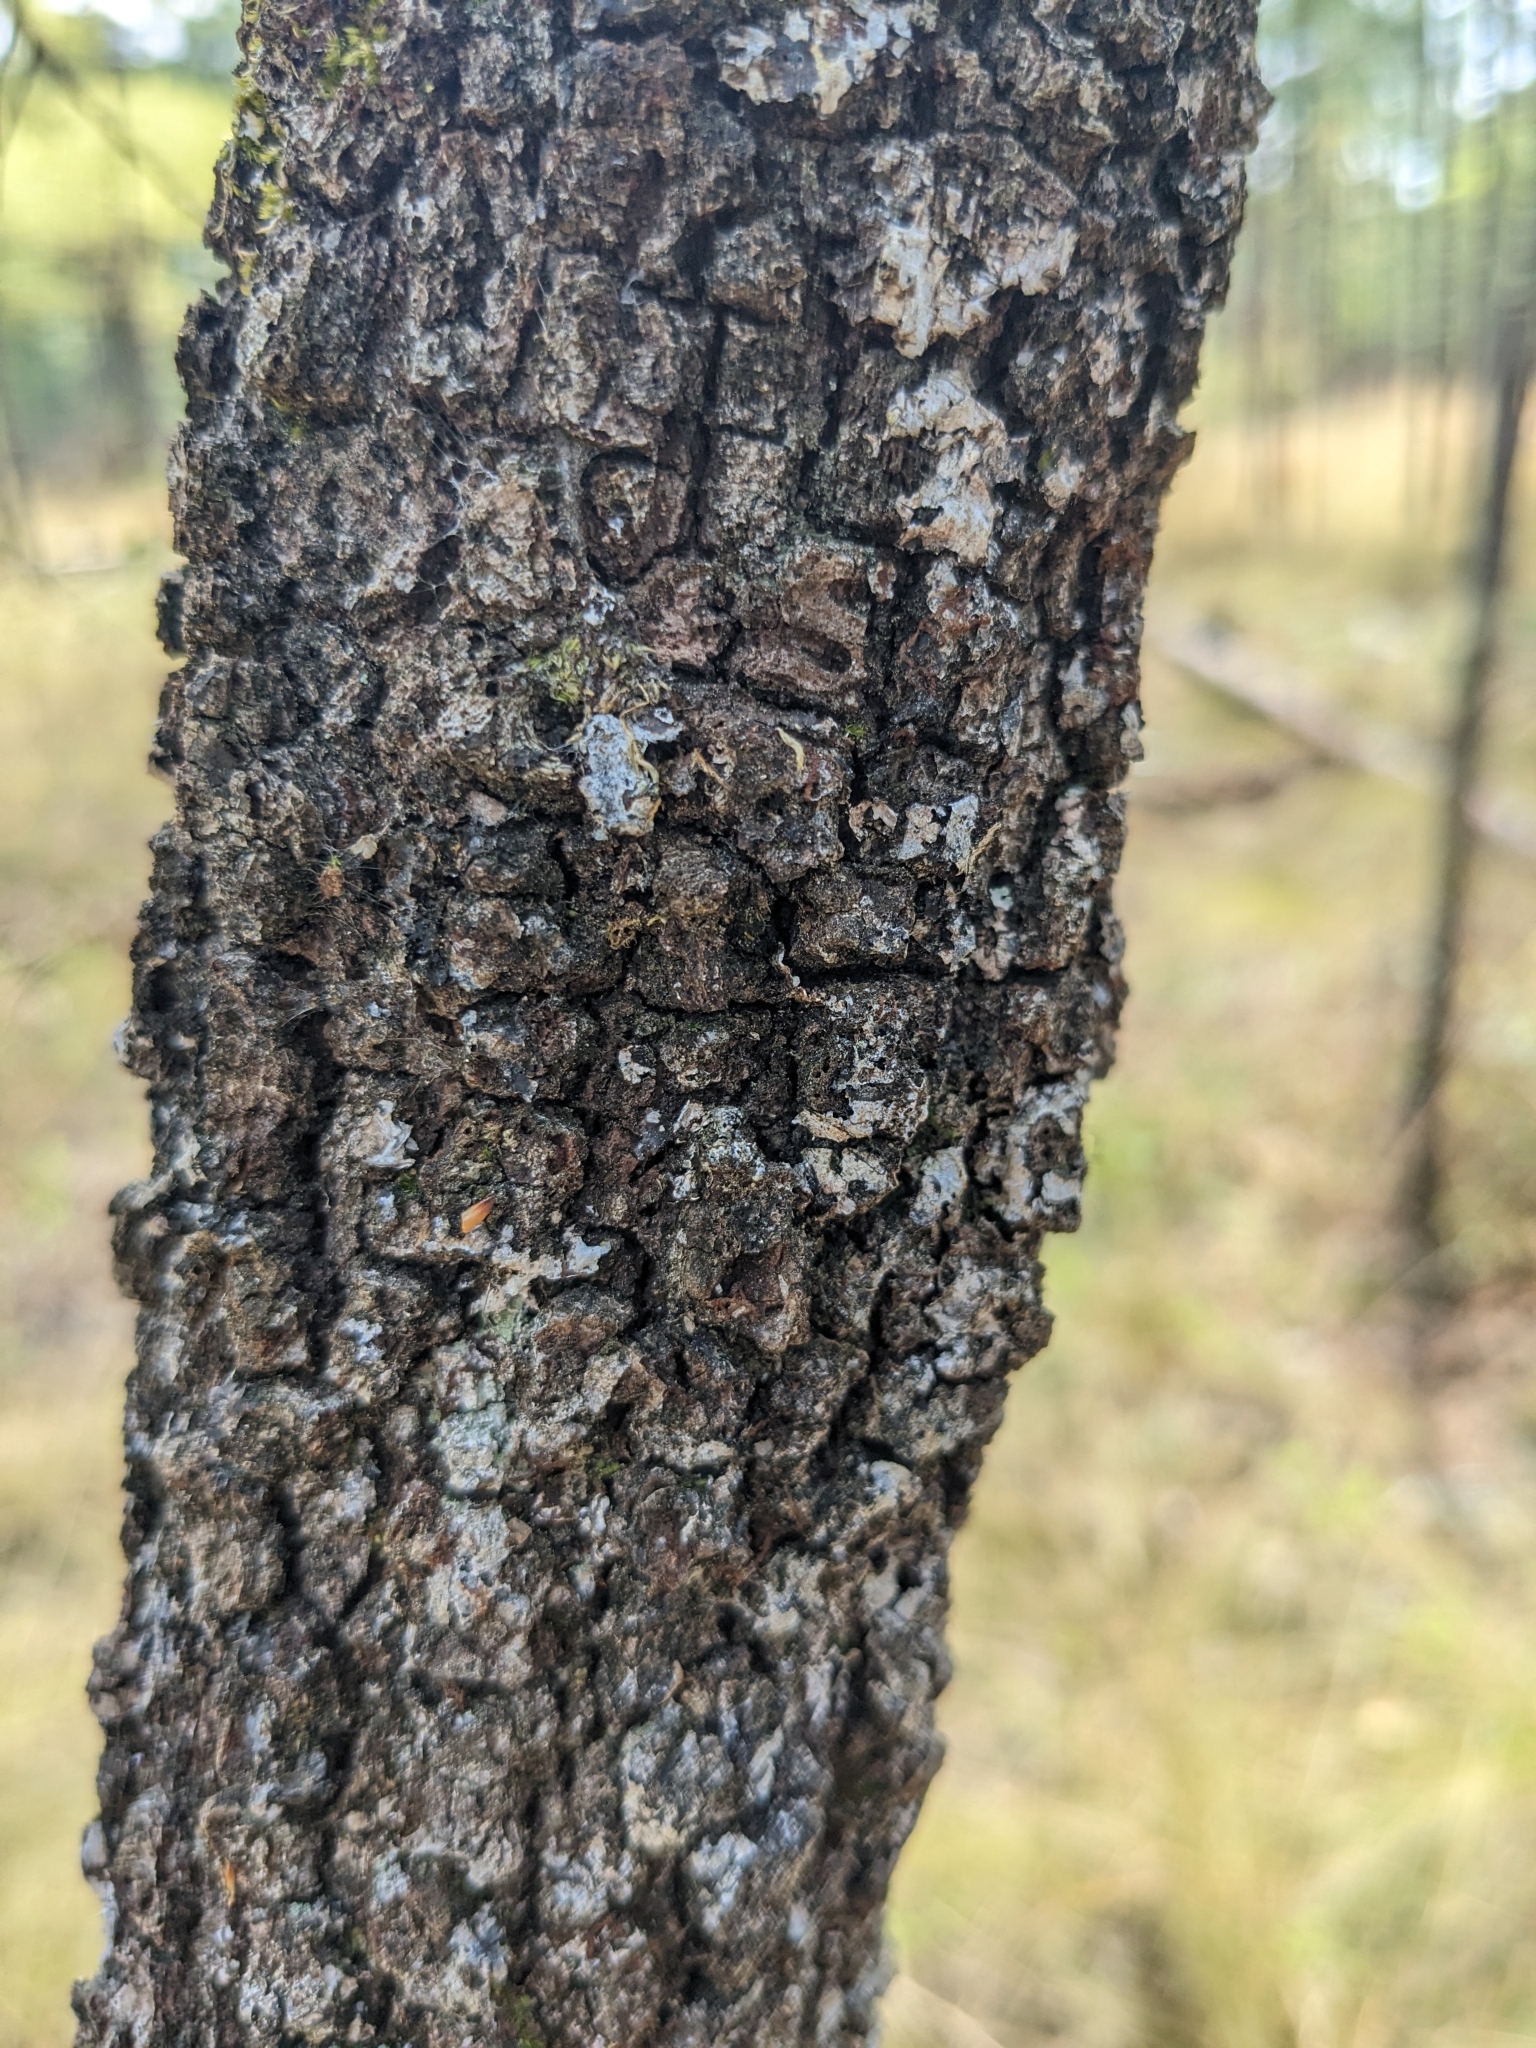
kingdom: Plantae
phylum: Tracheophyta
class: Magnoliopsida
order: Fagales
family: Fagaceae
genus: Quercus
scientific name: Quercus incana
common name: Bluejack oak
